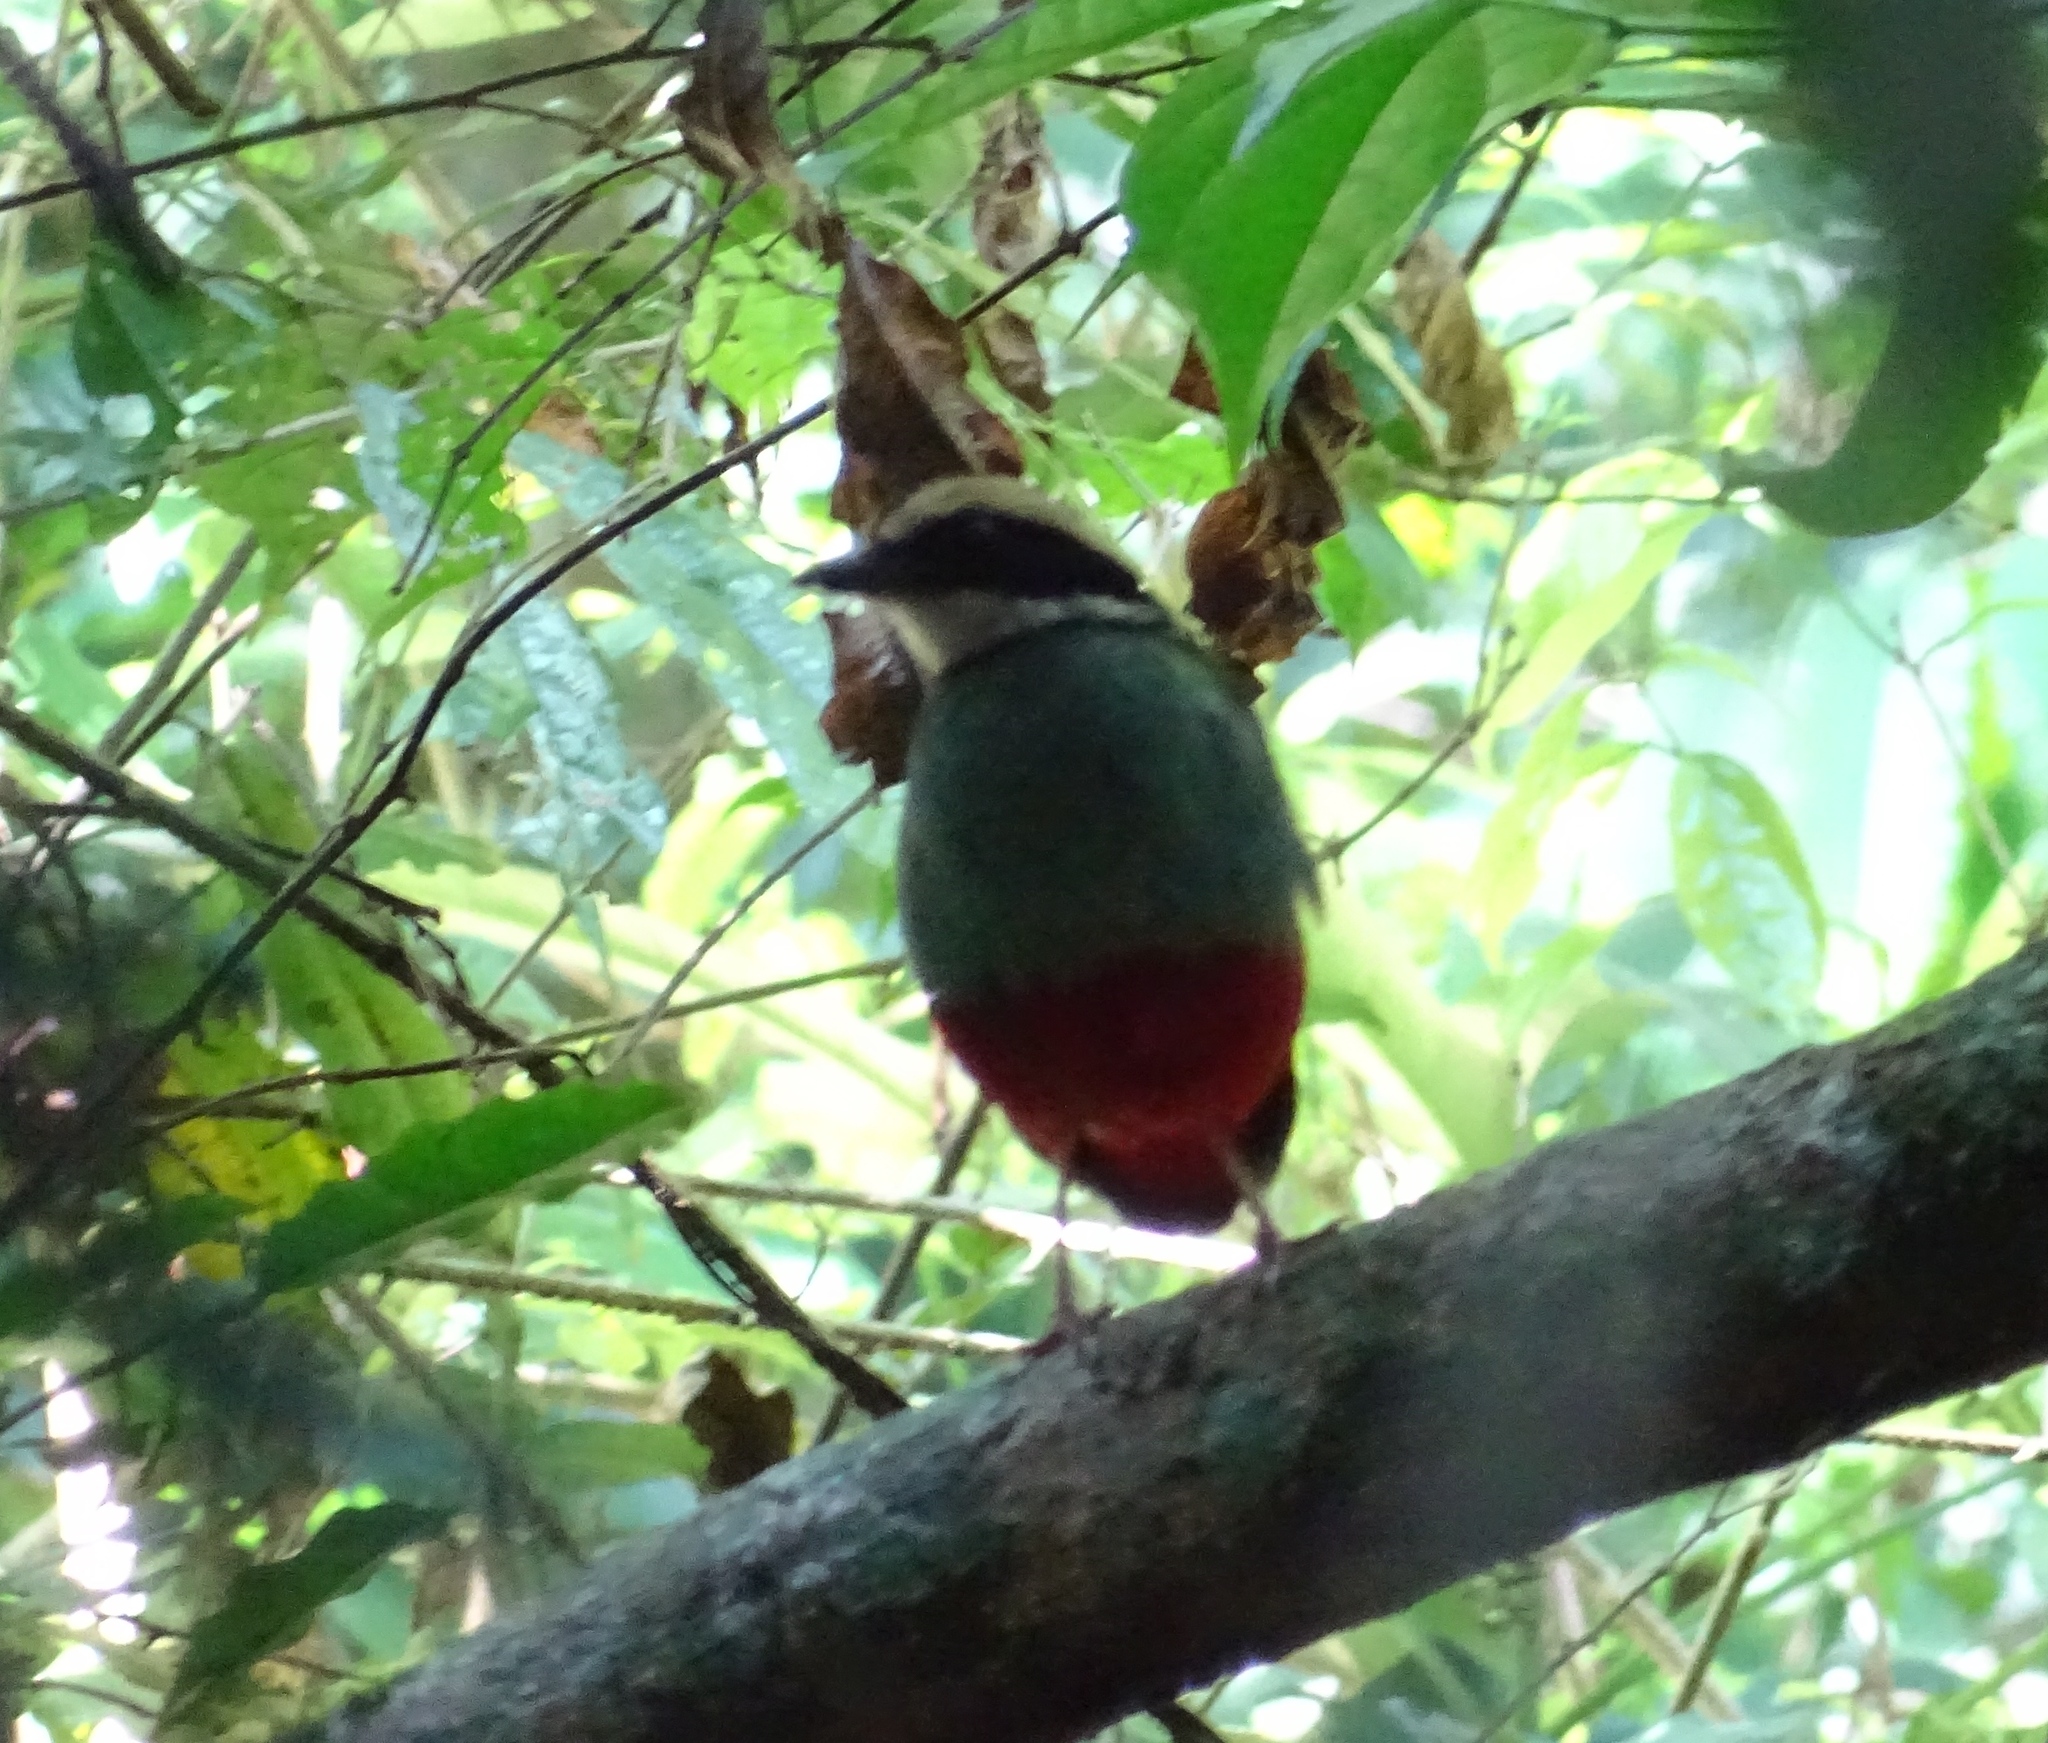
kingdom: Animalia
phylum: Chordata
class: Aves
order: Passeriformes
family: Pittidae
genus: Pitta
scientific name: Pitta reichenowi
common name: Green-breasted pitta
